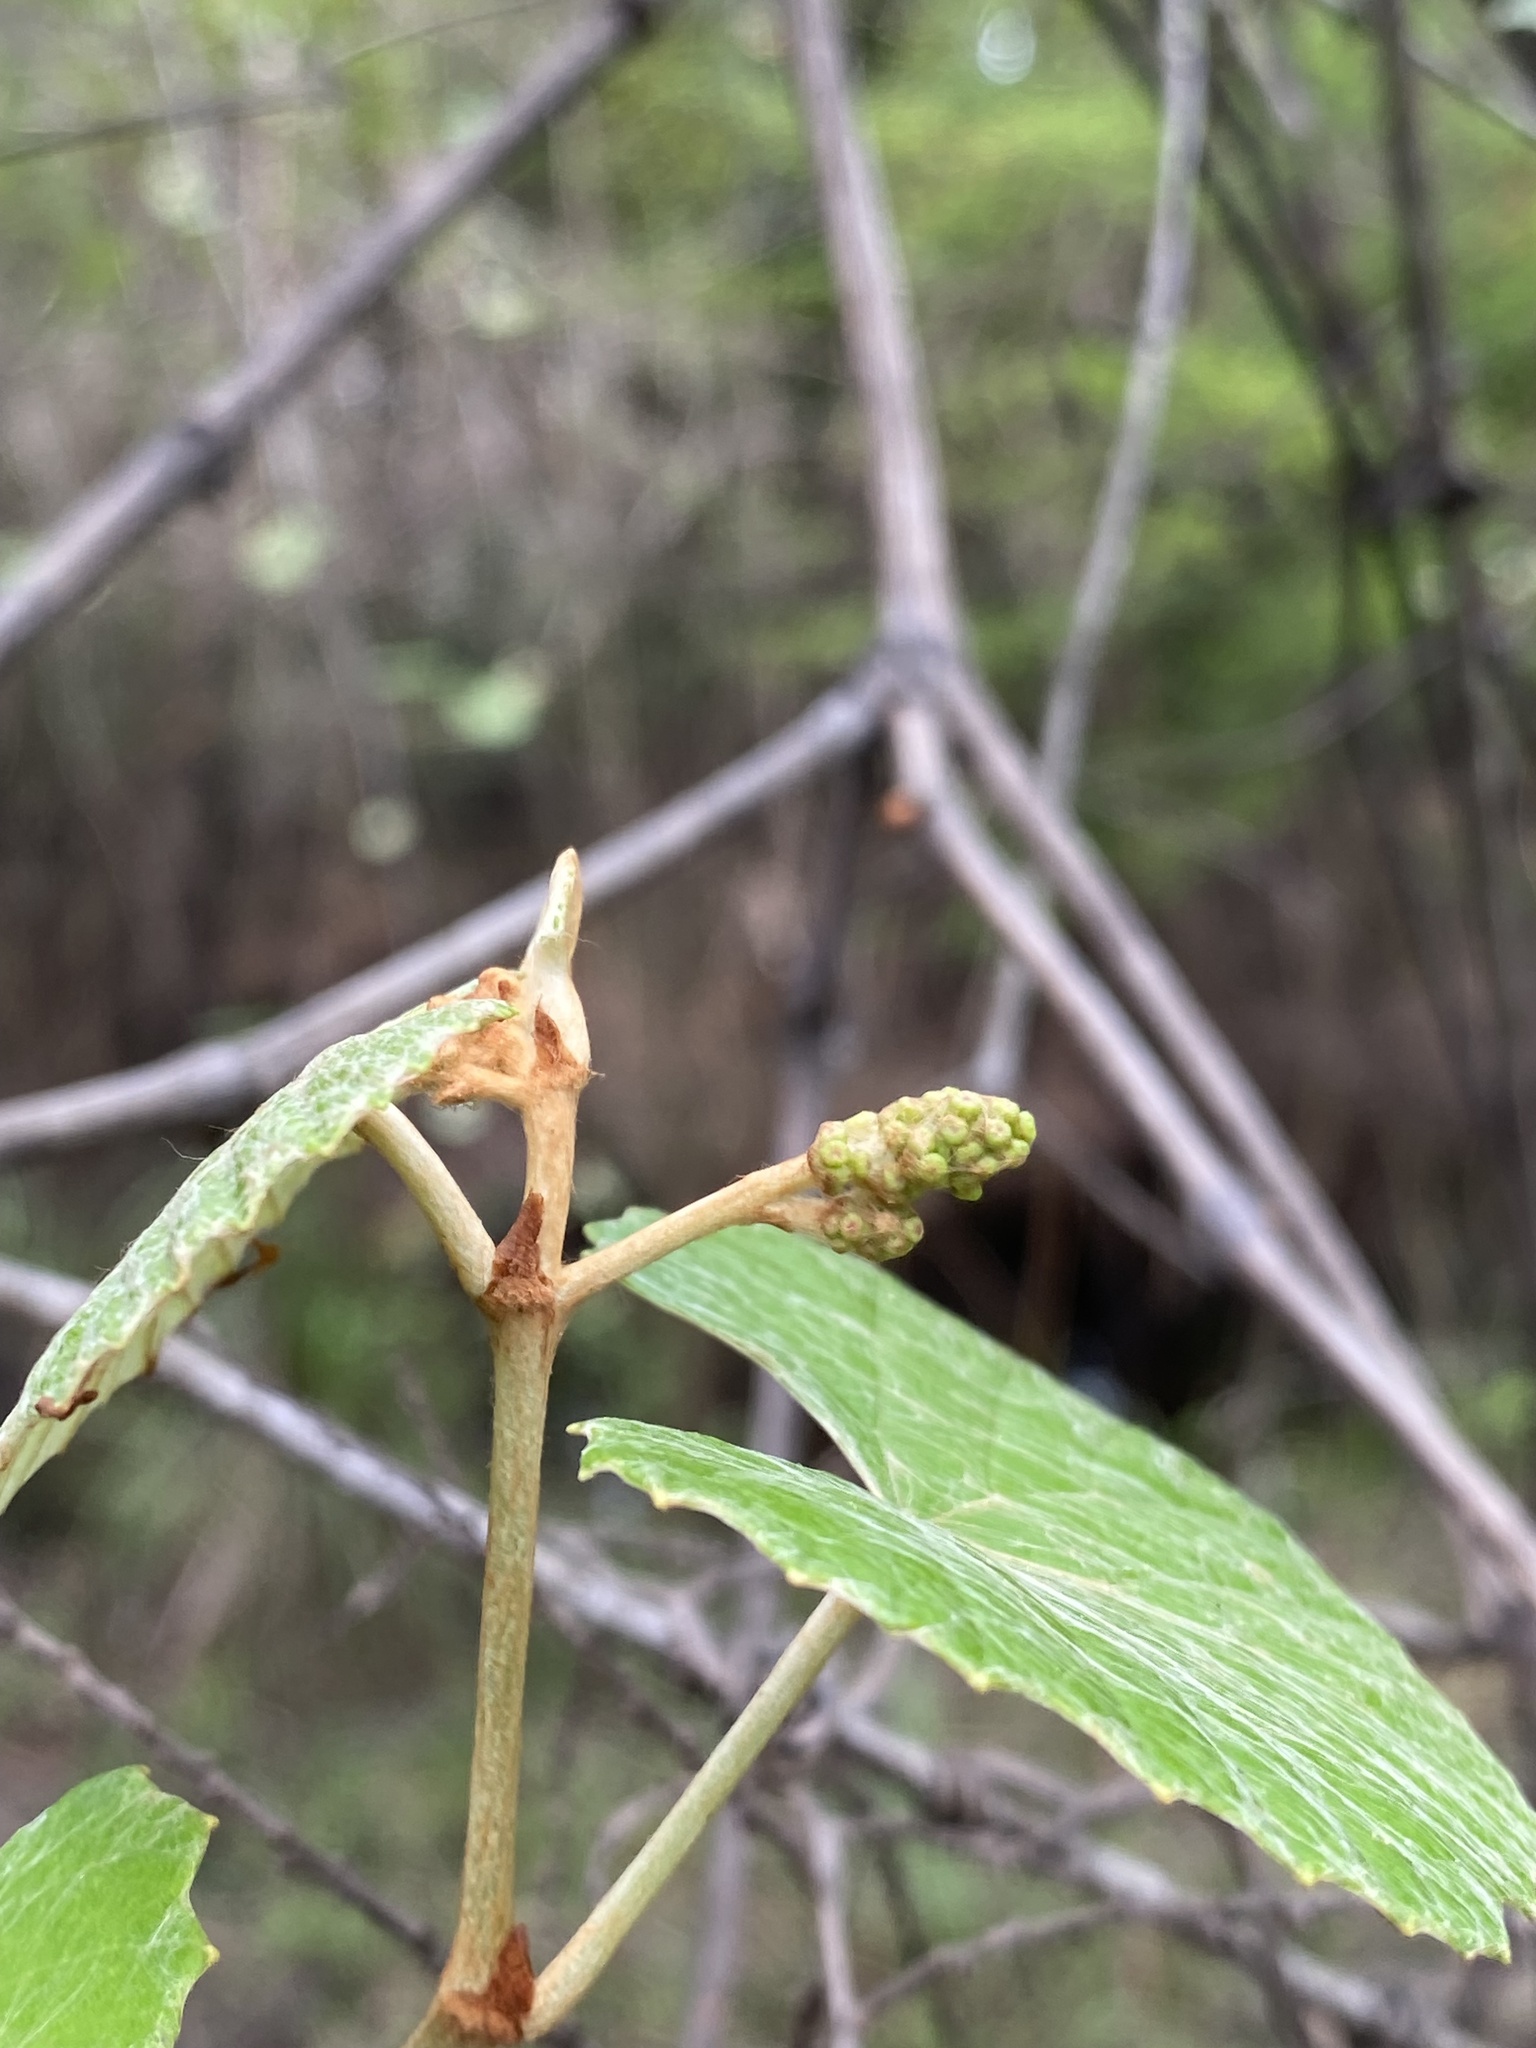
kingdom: Plantae
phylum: Tracheophyta
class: Magnoliopsida
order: Vitales
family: Vitaceae
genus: Vitis
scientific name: Vitis shuttleworthii
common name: Caloosa grape
